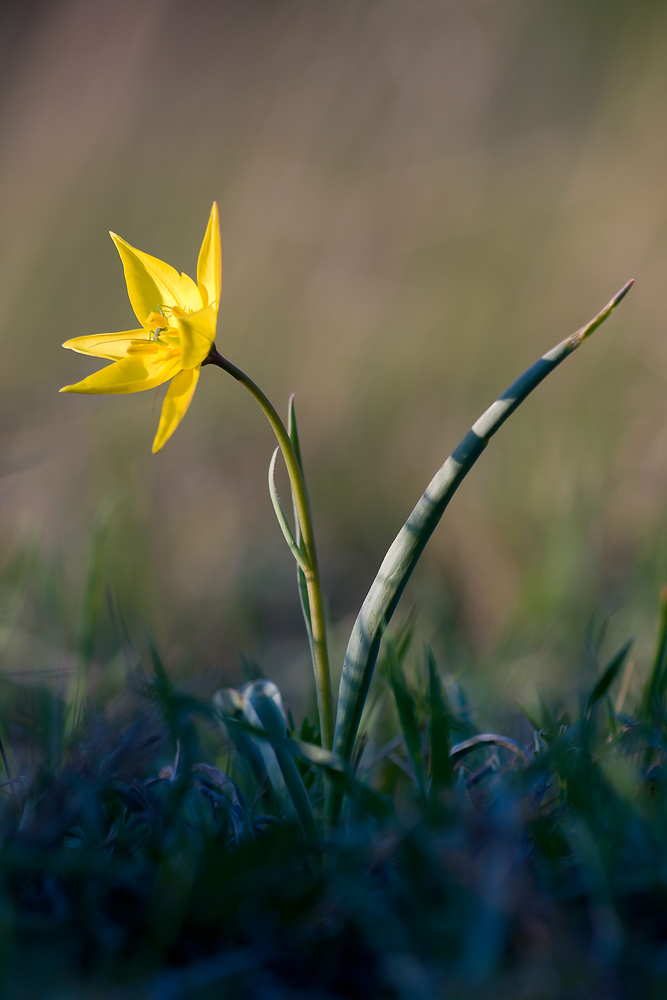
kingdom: Plantae
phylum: Tracheophyta
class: Liliopsida
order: Liliales
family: Liliaceae
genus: Tulipa
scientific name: Tulipa sylvestris
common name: Wild tulip
